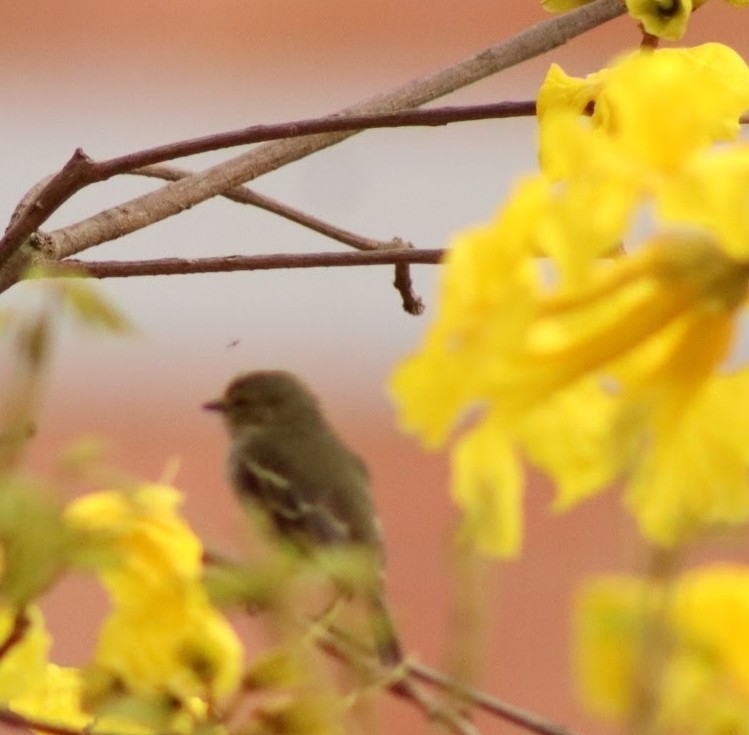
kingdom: Animalia
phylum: Chordata
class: Aves
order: Passeriformes
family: Tyrannidae
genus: Zimmerius
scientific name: Zimmerius chrysops
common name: Golden-faced tyrannulet
